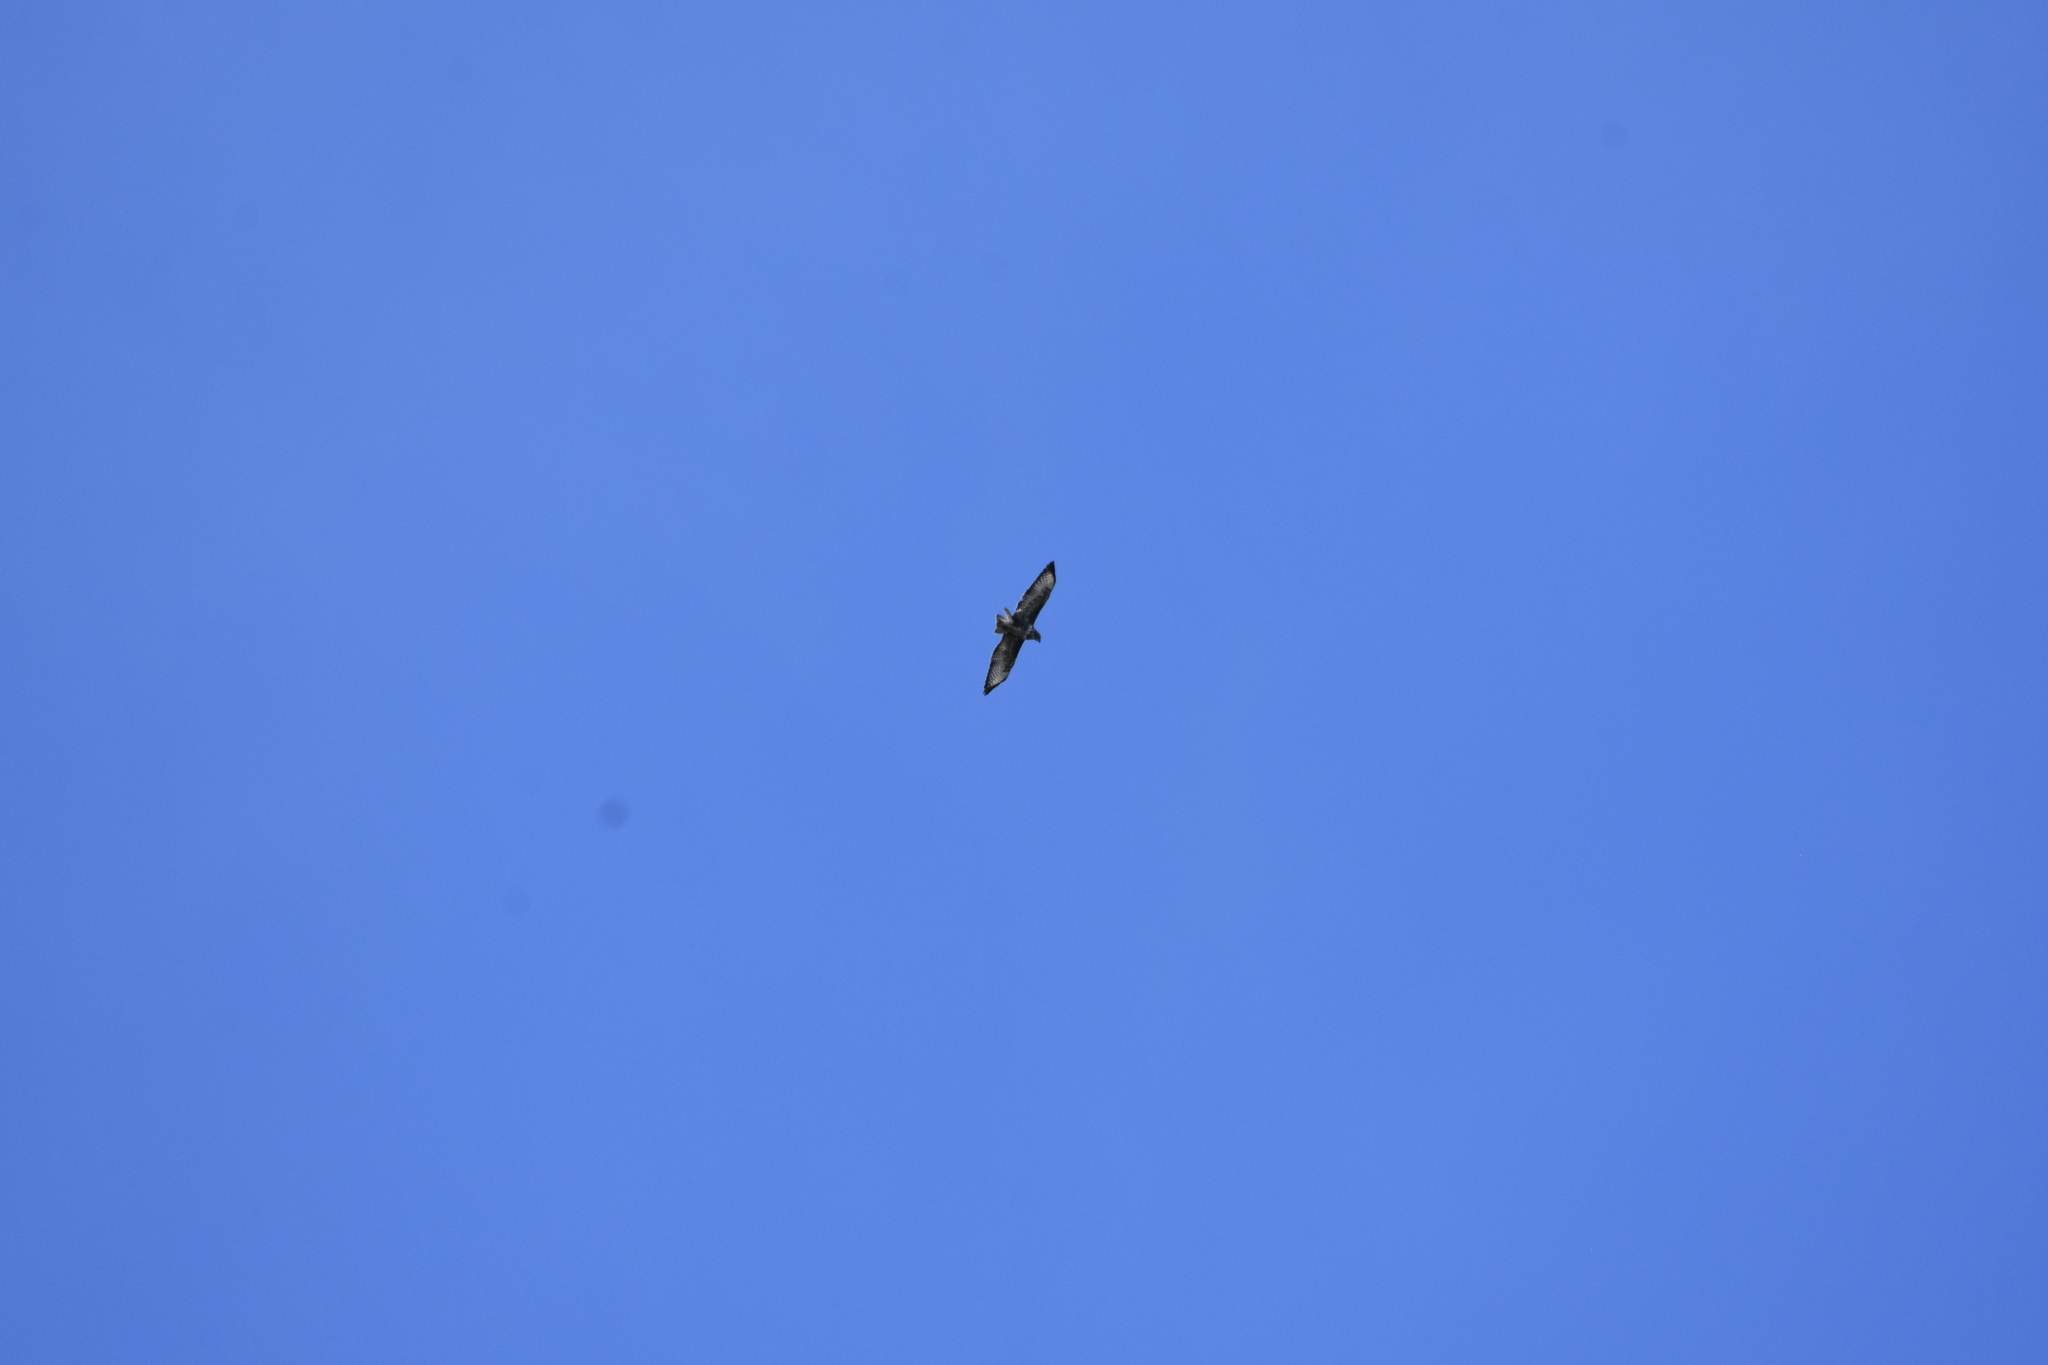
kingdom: Animalia
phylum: Chordata
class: Aves
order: Accipitriformes
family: Accipitridae
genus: Buteo
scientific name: Buteo buteo
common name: Common buzzard
